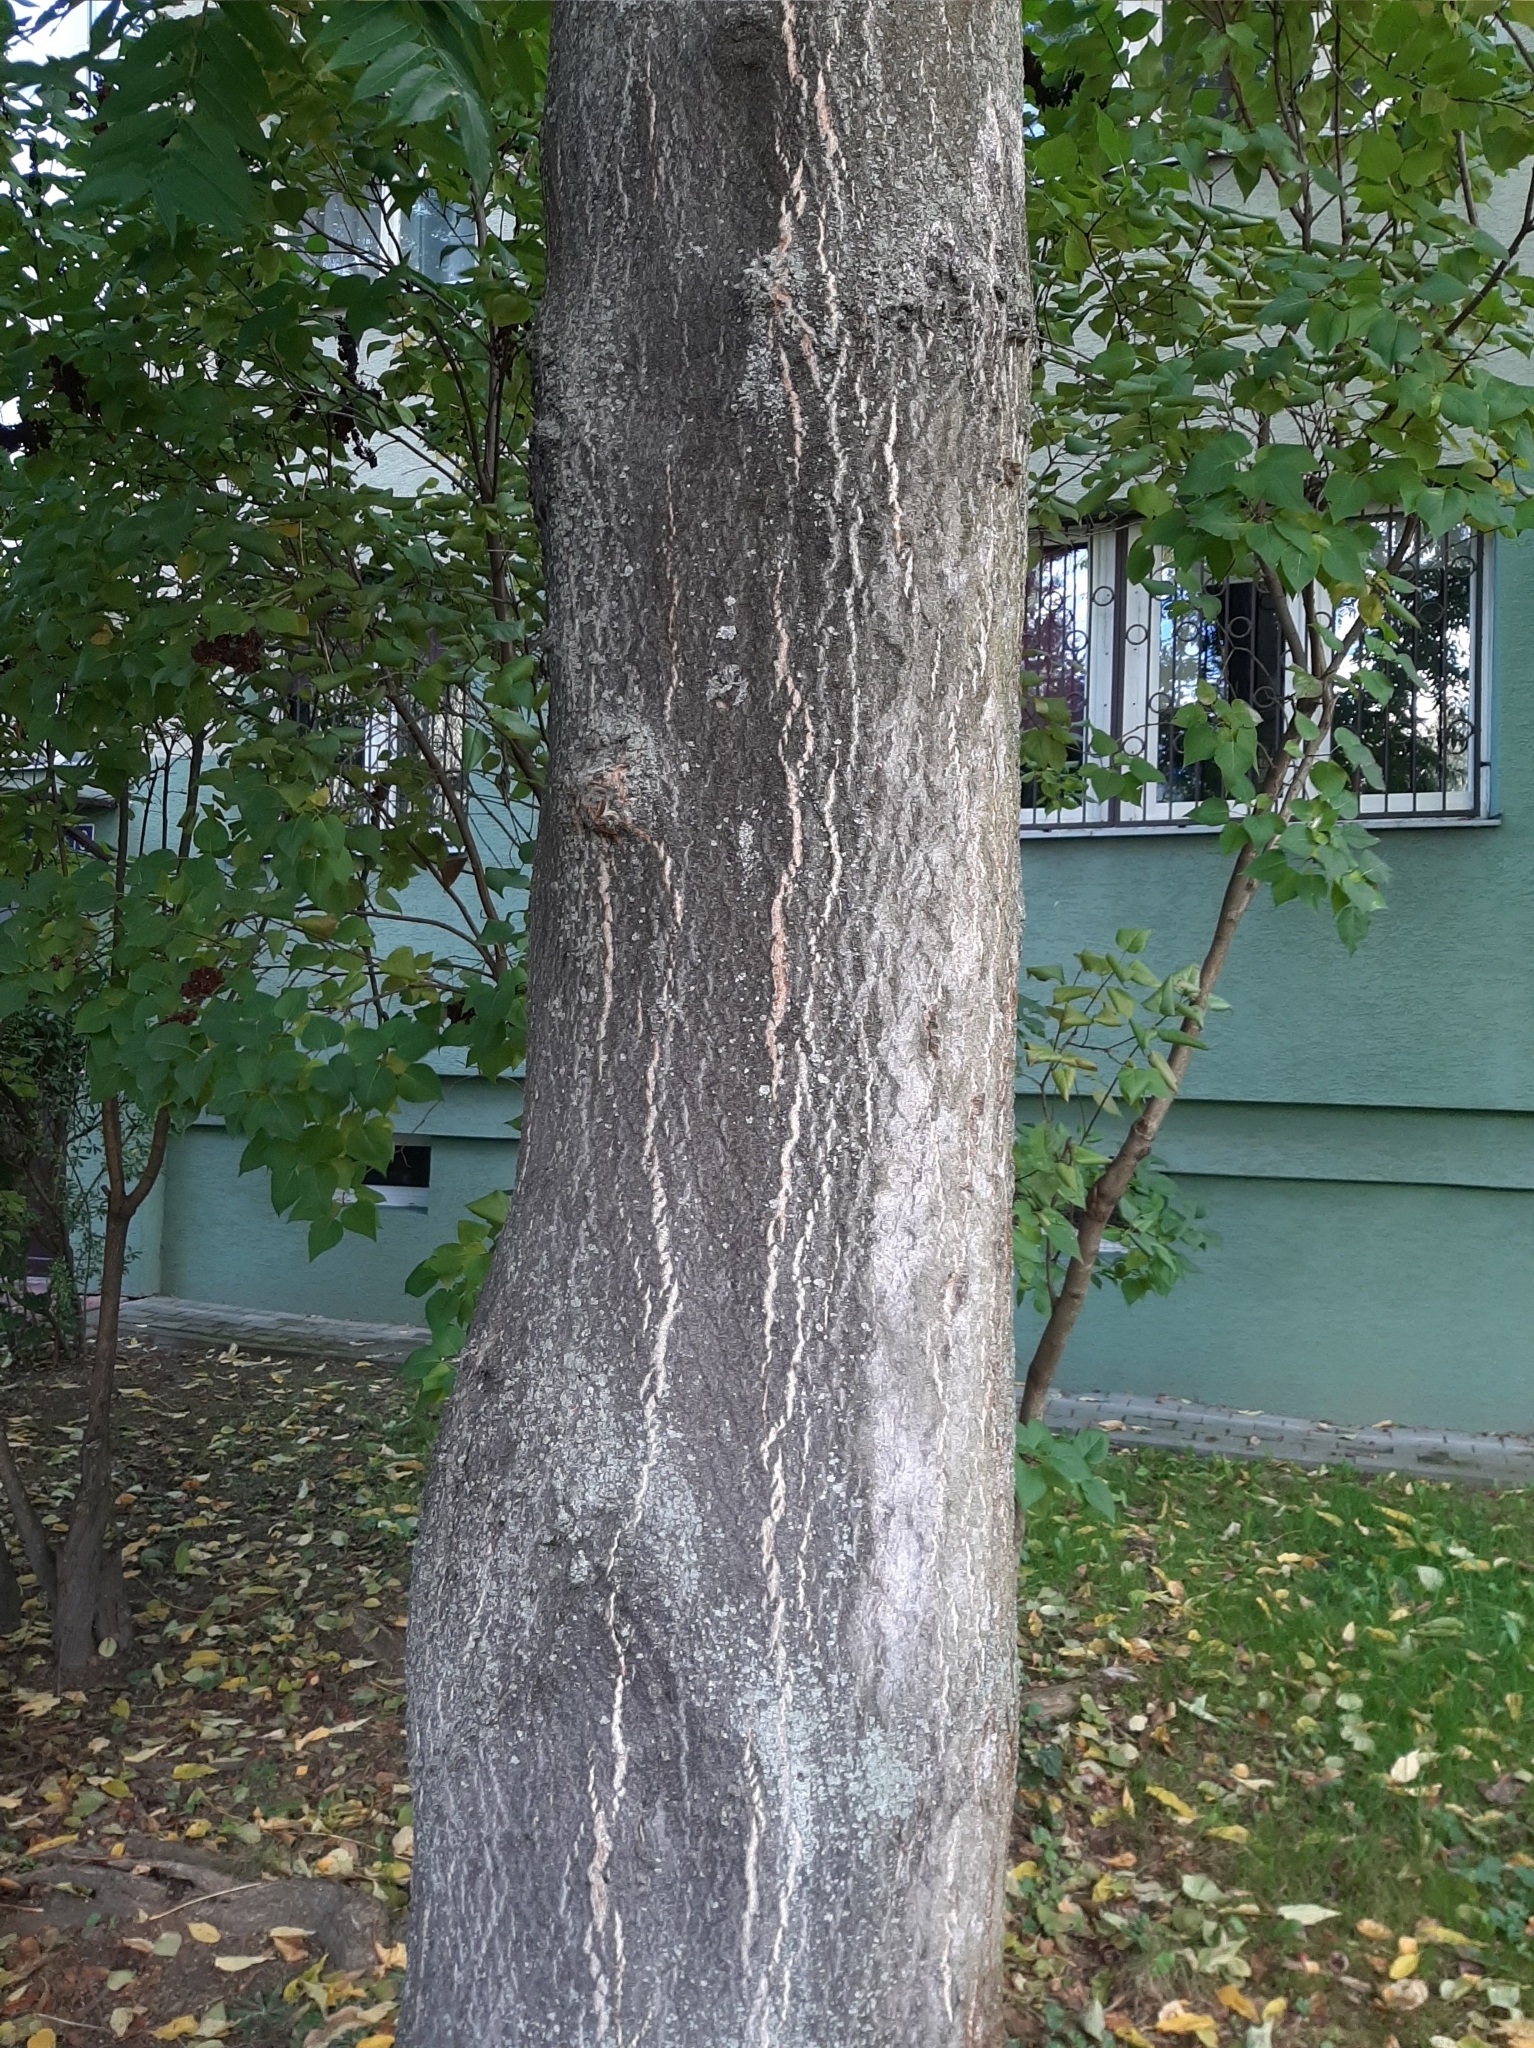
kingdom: Plantae
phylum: Tracheophyta
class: Magnoliopsida
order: Sapindales
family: Simaroubaceae
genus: Ailanthus
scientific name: Ailanthus altissima
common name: Tree-of-heaven
